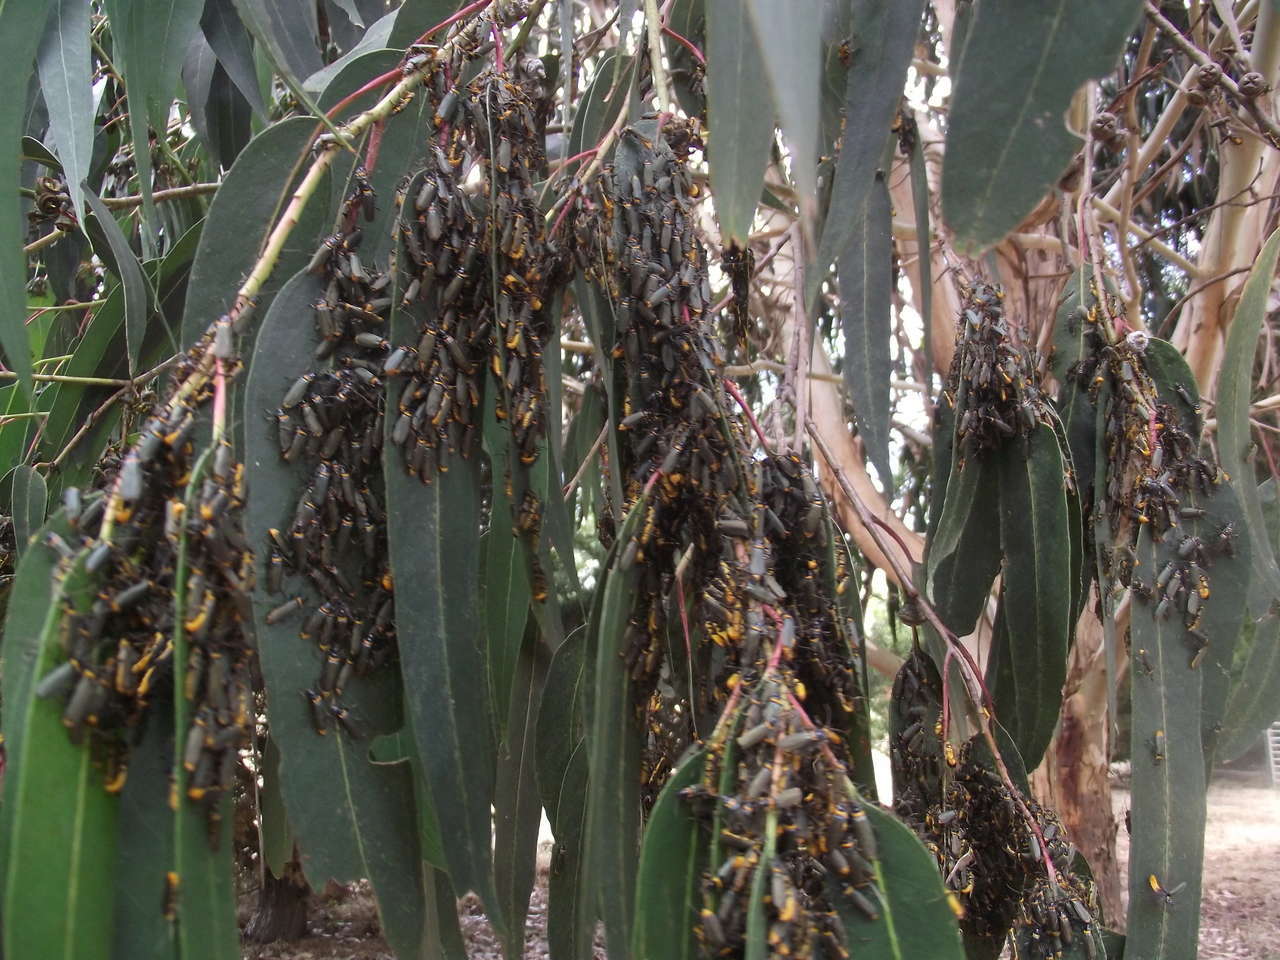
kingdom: Animalia
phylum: Arthropoda
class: Insecta
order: Coleoptera
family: Cantharidae
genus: Chauliognathus
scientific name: Chauliognathus
